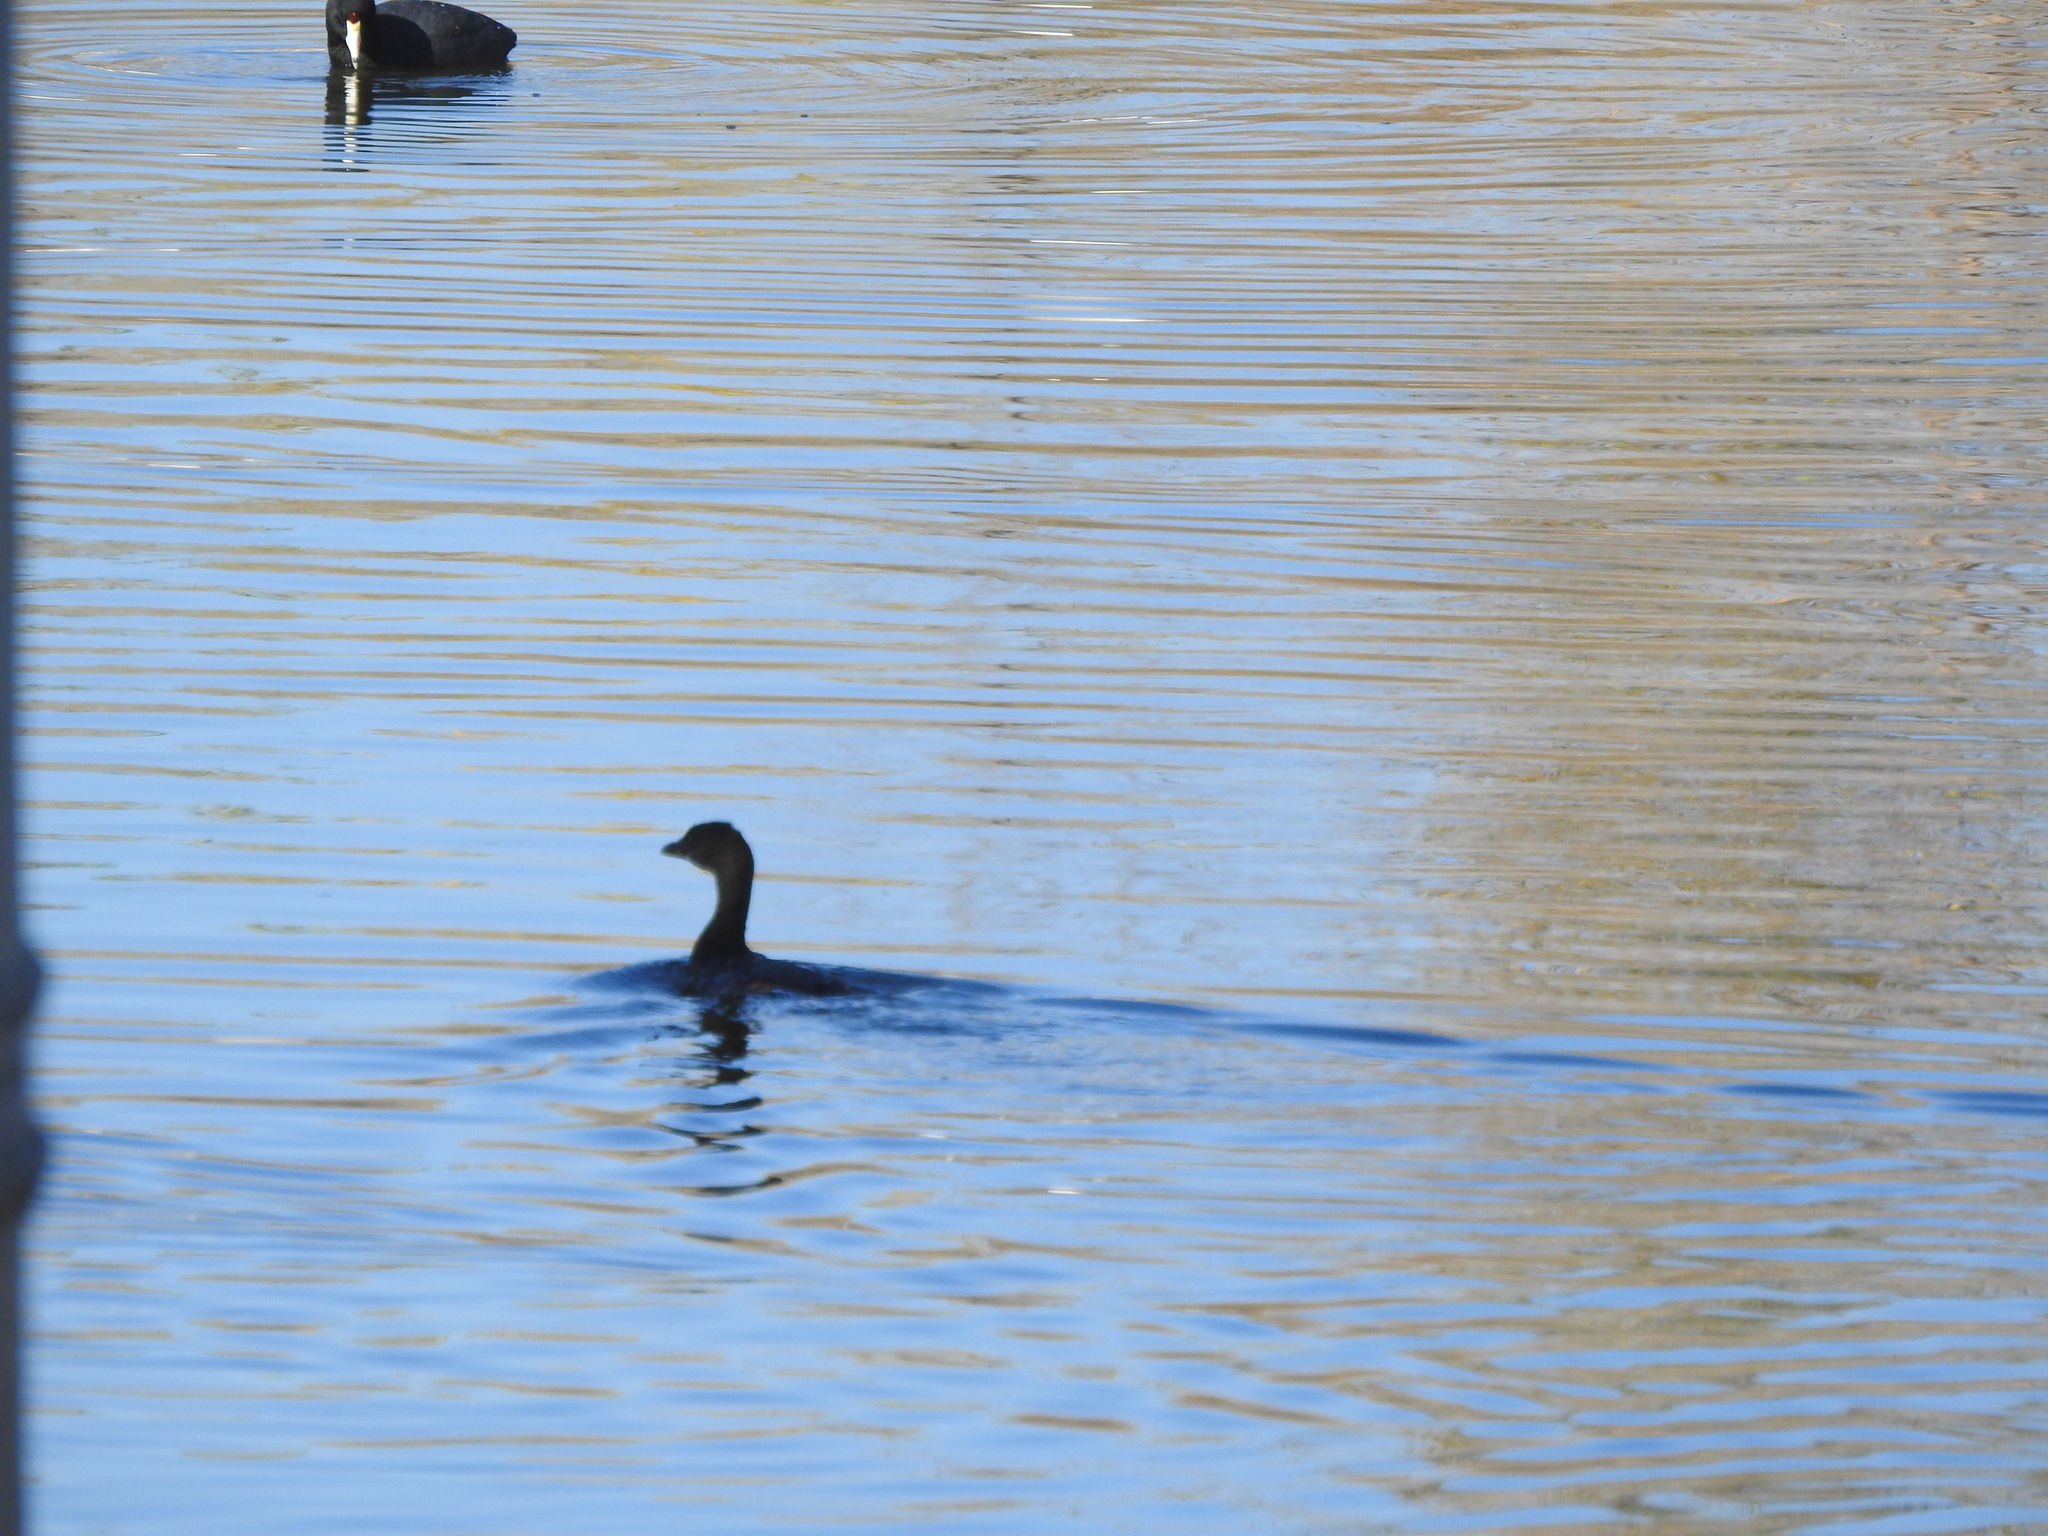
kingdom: Animalia
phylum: Chordata
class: Aves
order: Podicipediformes
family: Podicipedidae
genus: Podilymbus
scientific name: Podilymbus podiceps
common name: Pied-billed grebe
